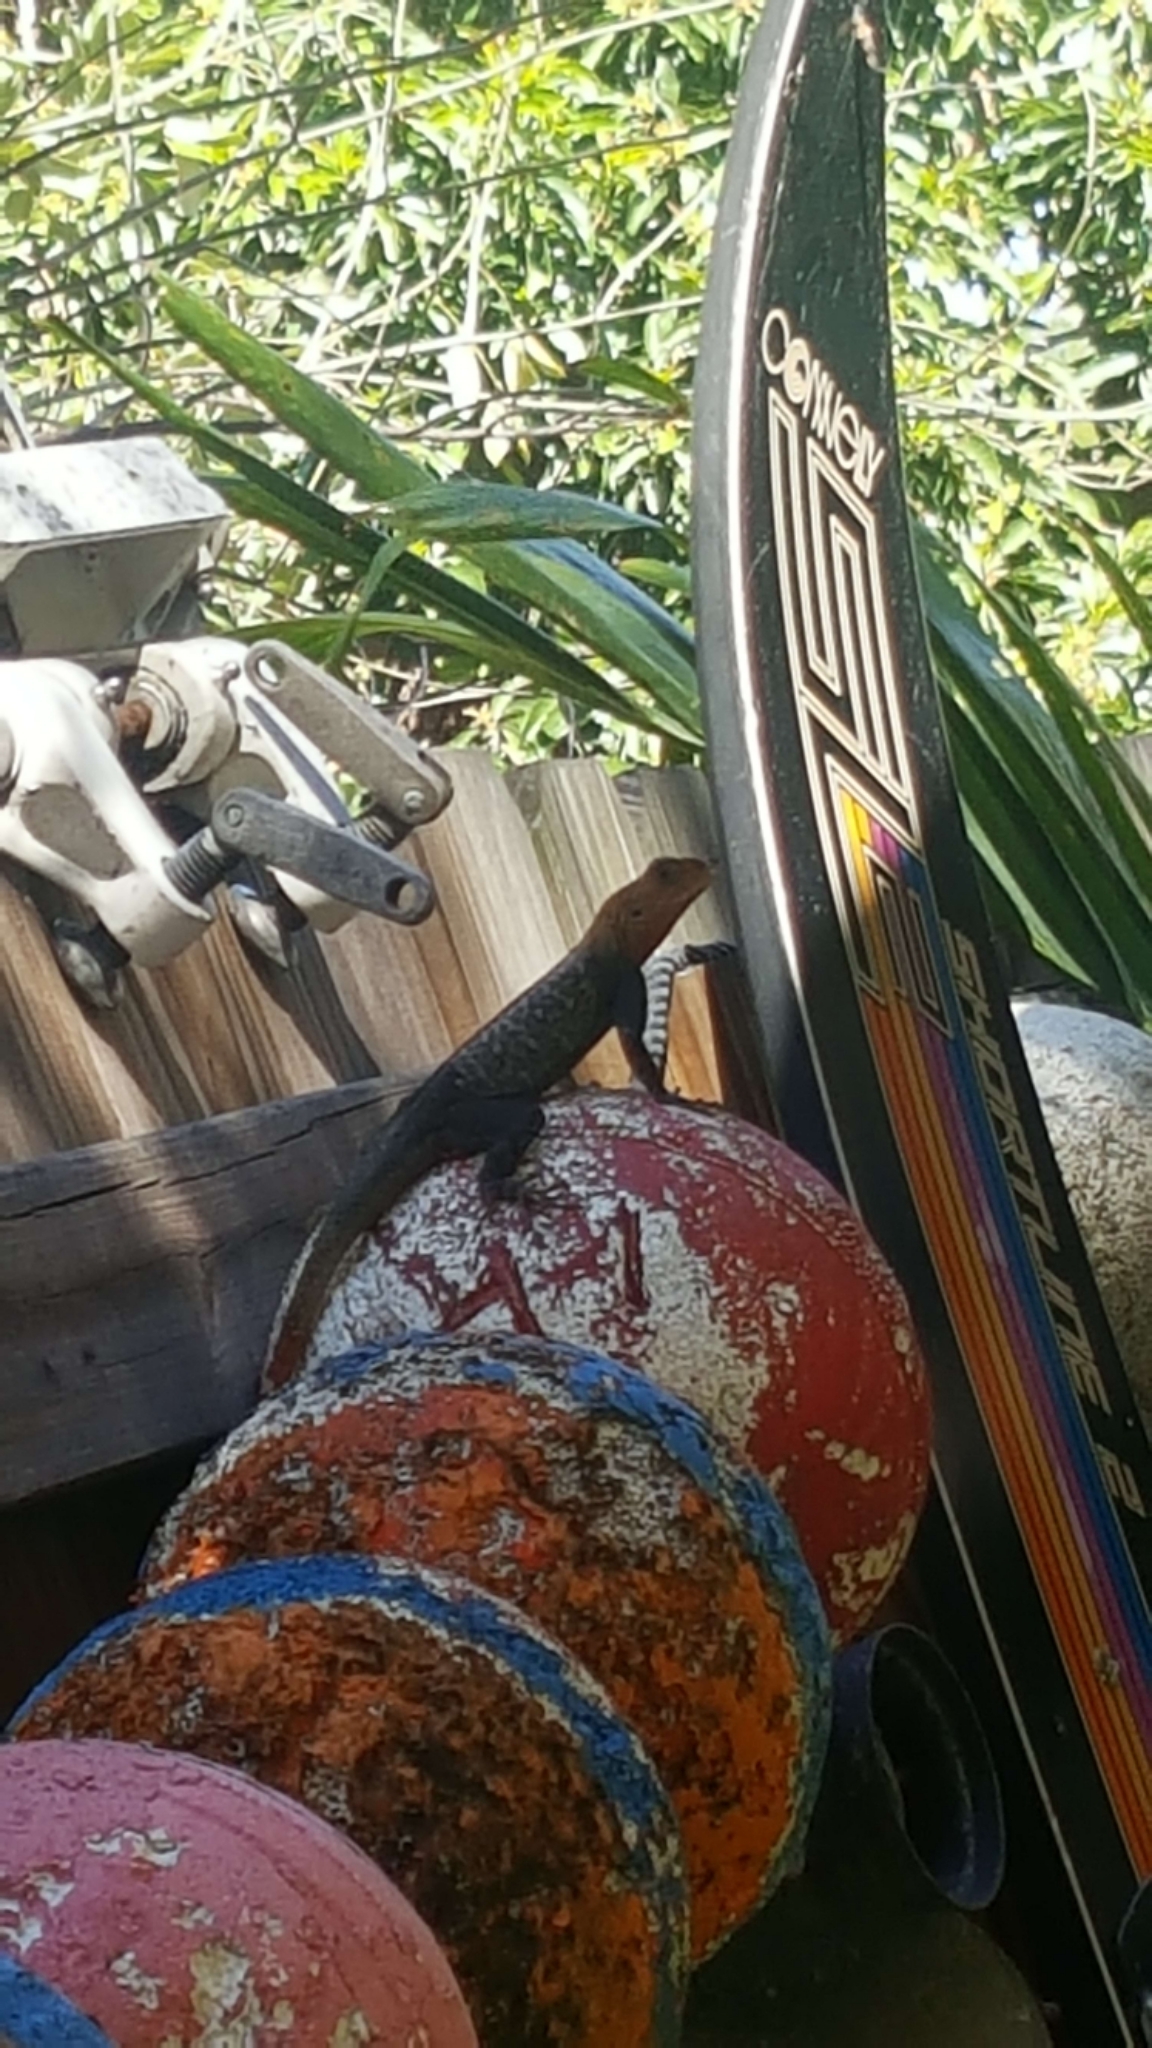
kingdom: Animalia
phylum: Chordata
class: Squamata
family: Agamidae
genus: Agama
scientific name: Agama picticauda
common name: Red-headed agama
